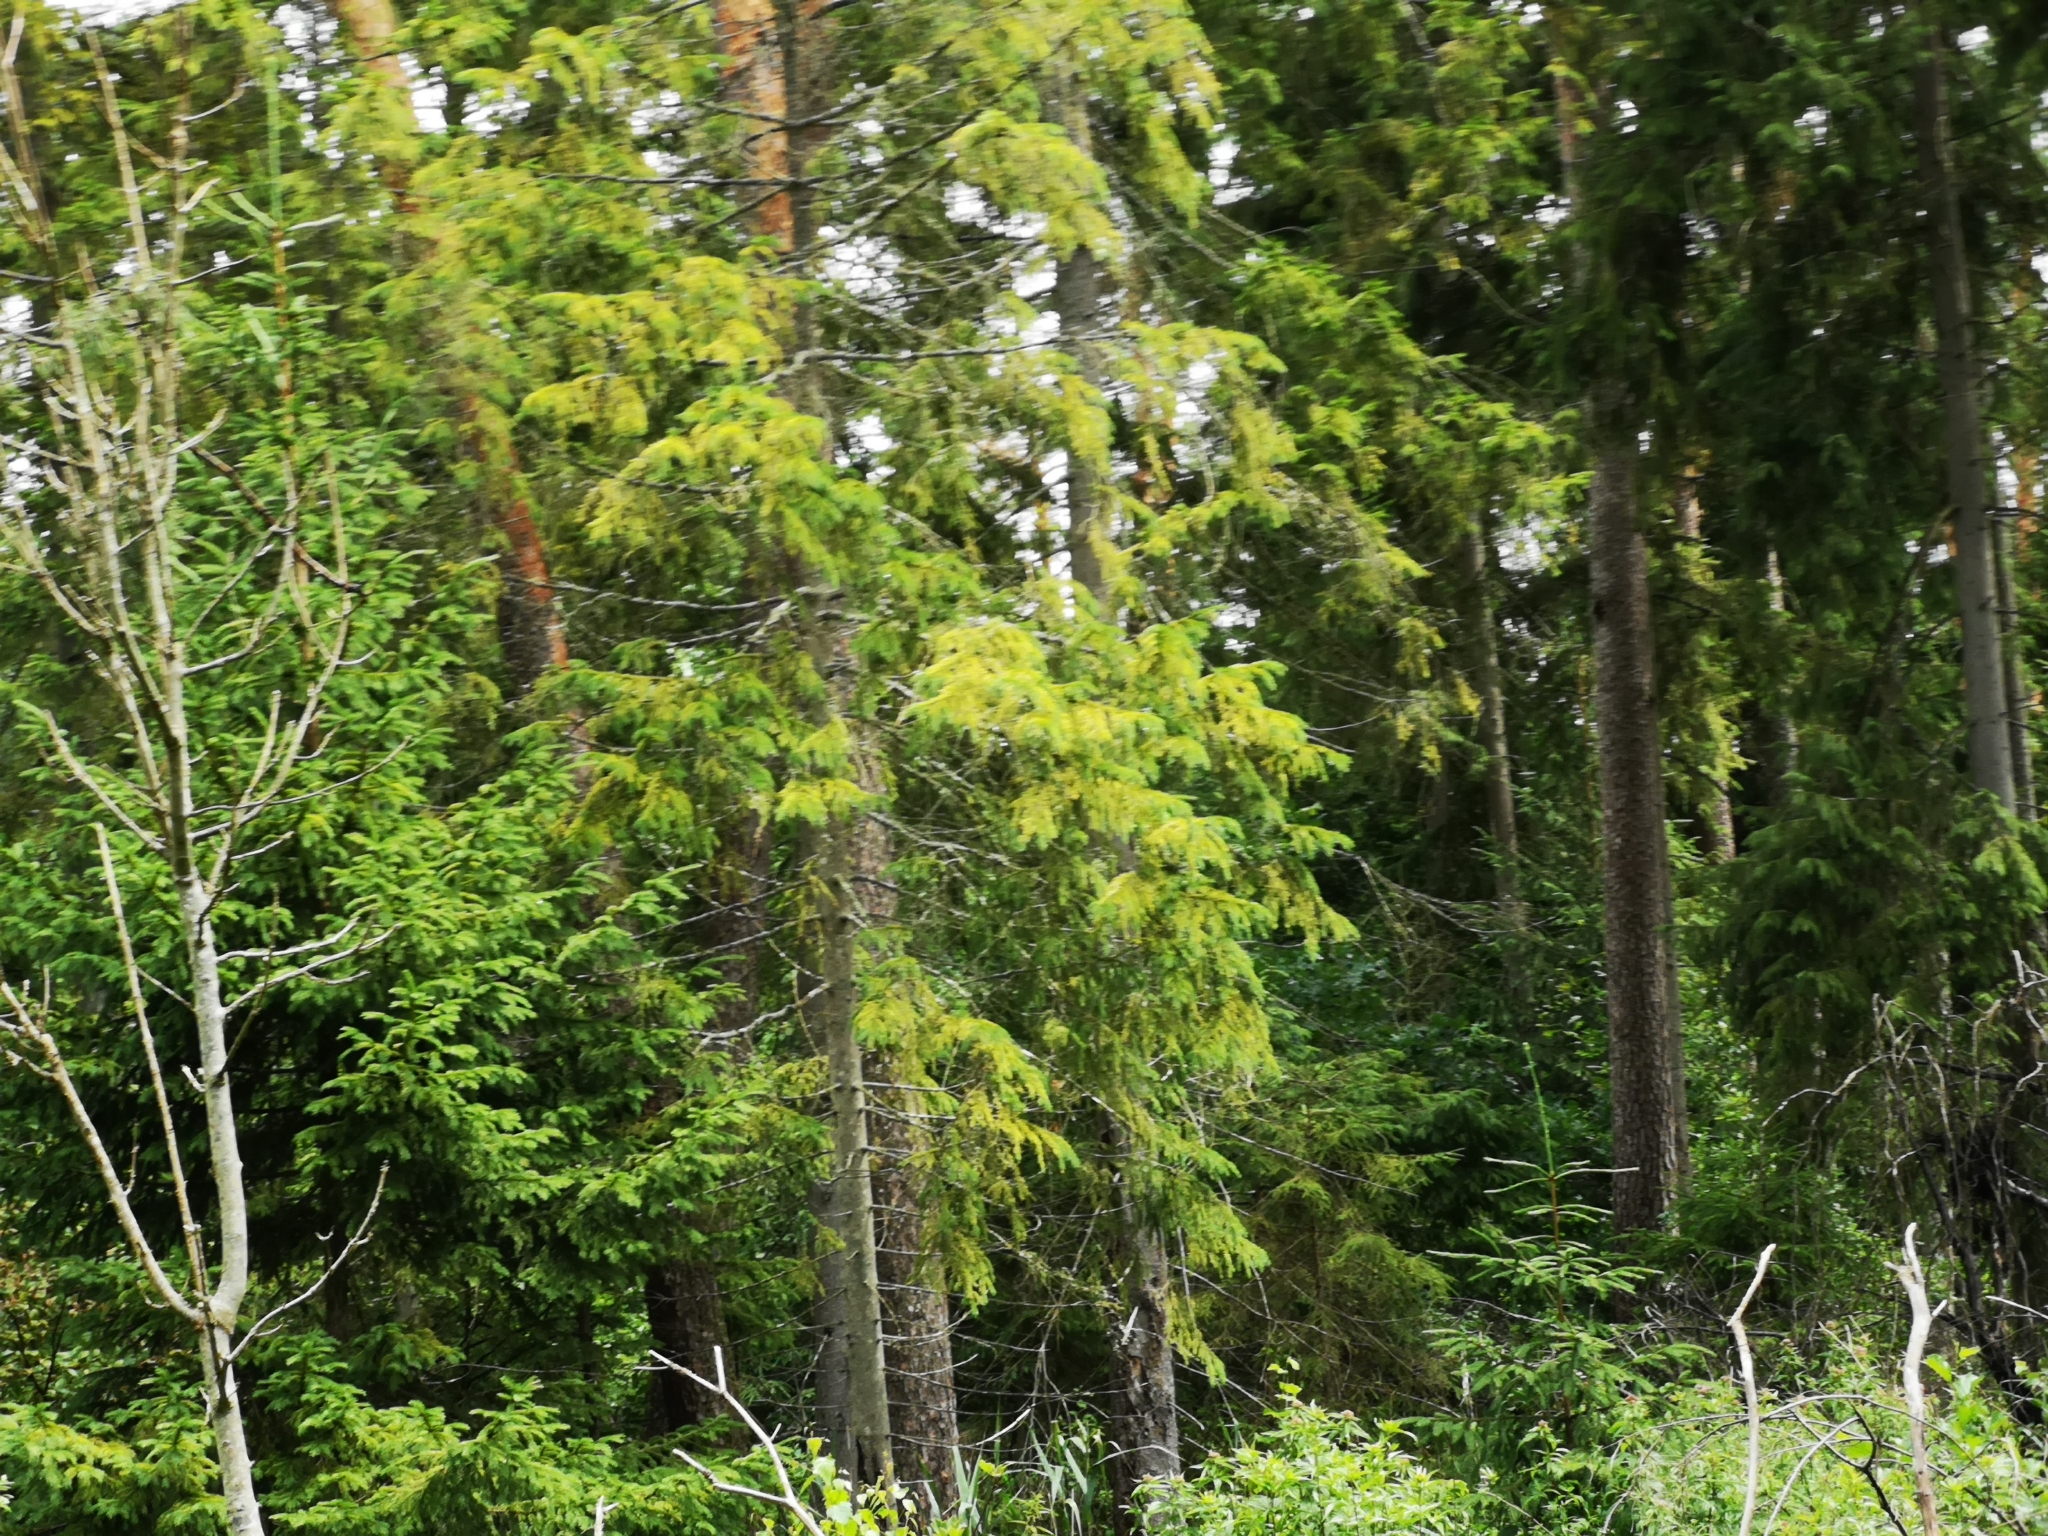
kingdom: Plantae
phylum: Tracheophyta
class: Pinopsida
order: Pinales
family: Pinaceae
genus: Picea
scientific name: Picea abies
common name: Norway spruce
